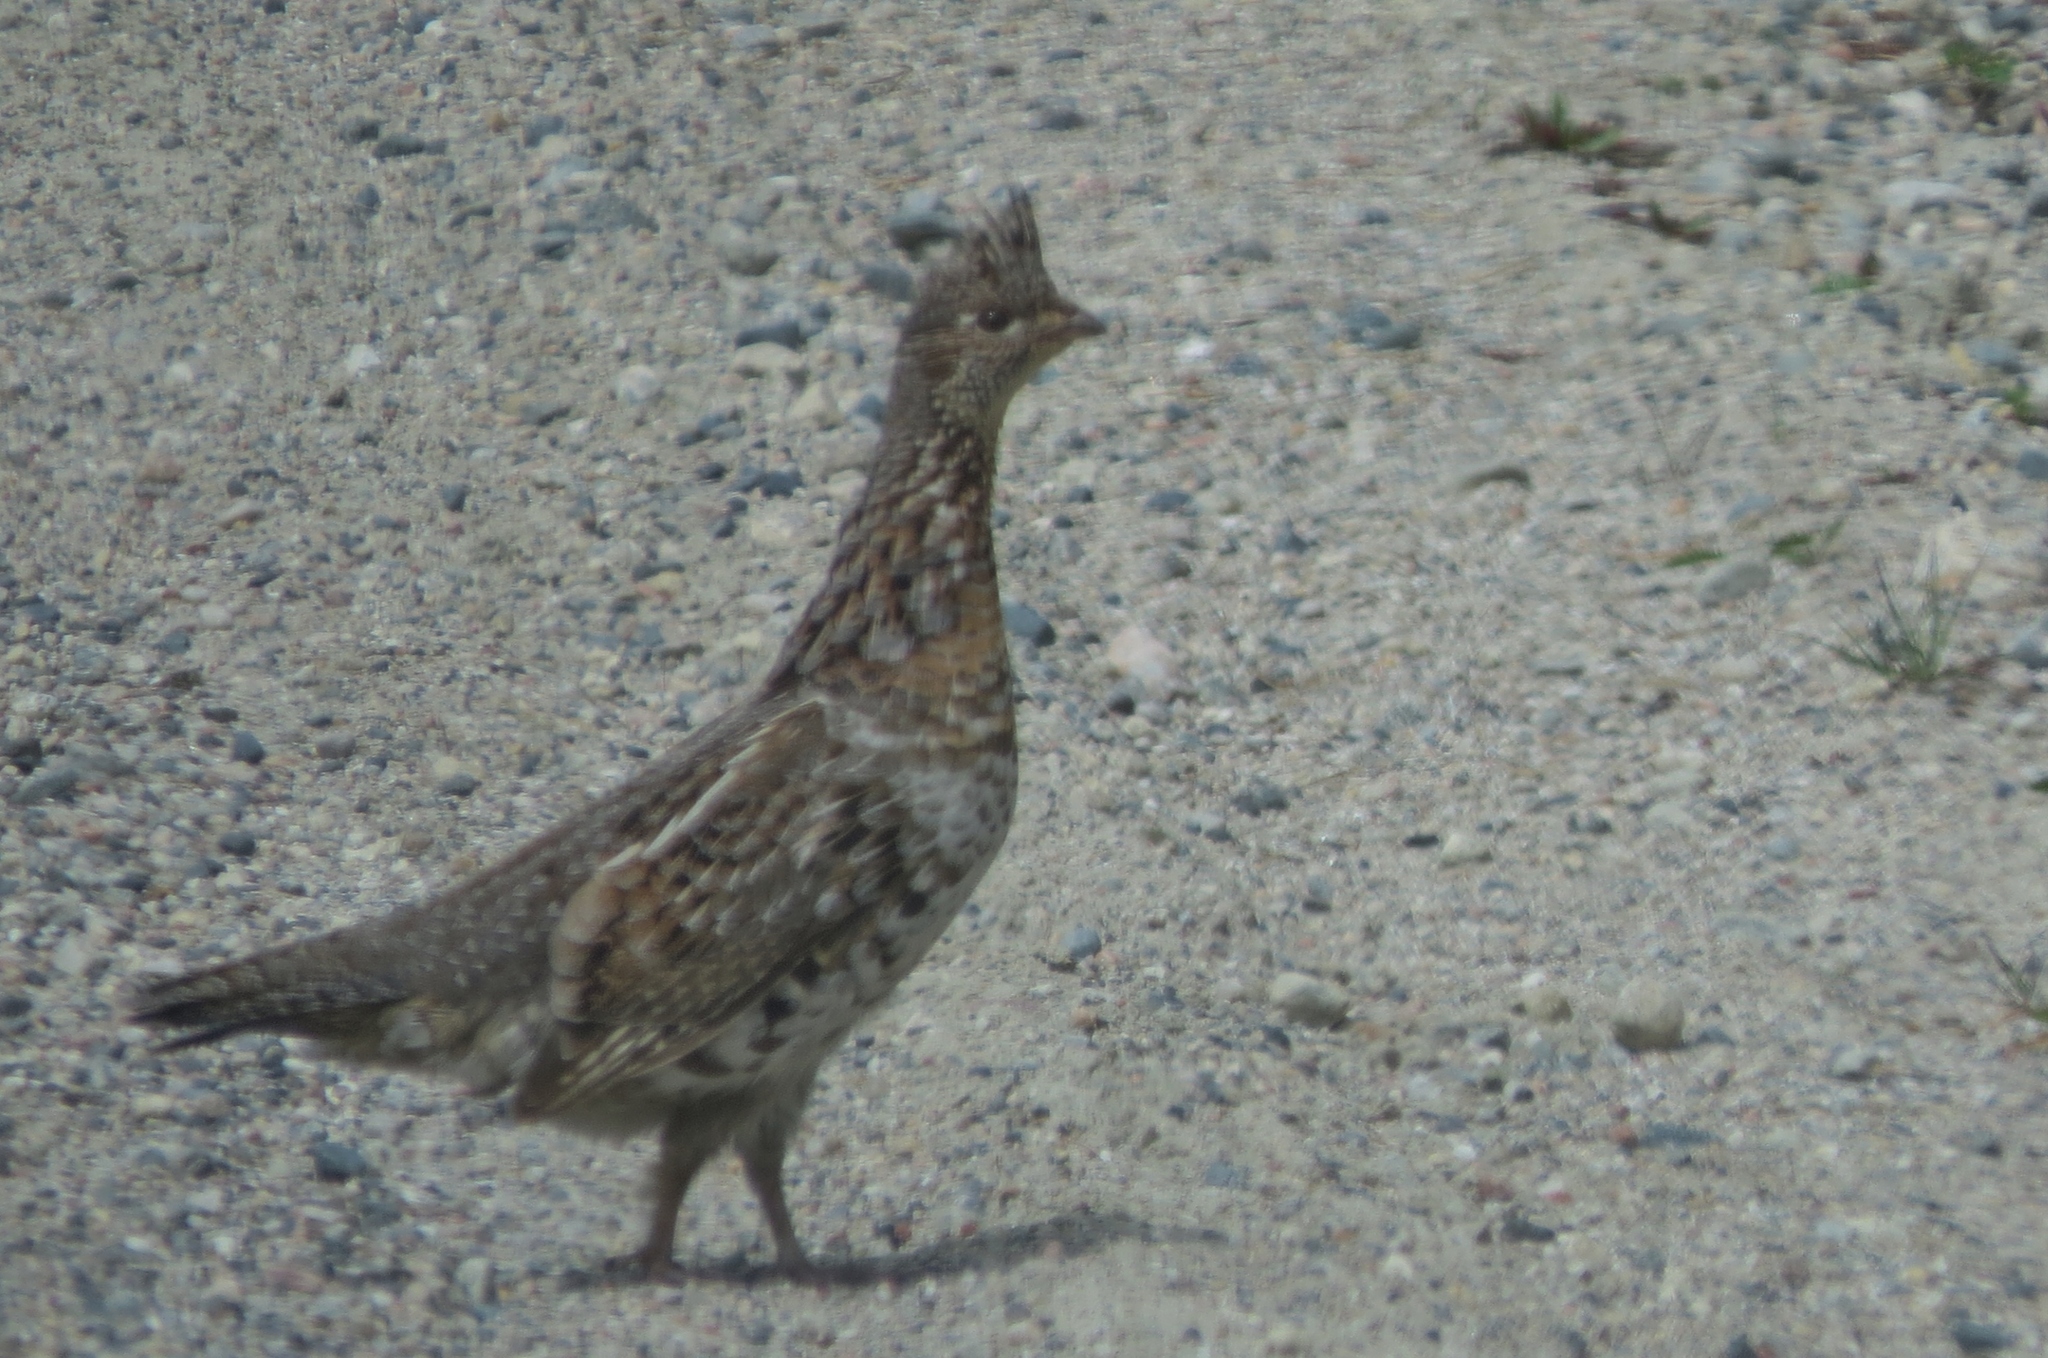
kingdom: Animalia
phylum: Chordata
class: Aves
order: Galliformes
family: Phasianidae
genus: Bonasa
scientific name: Bonasa umbellus
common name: Ruffed grouse
